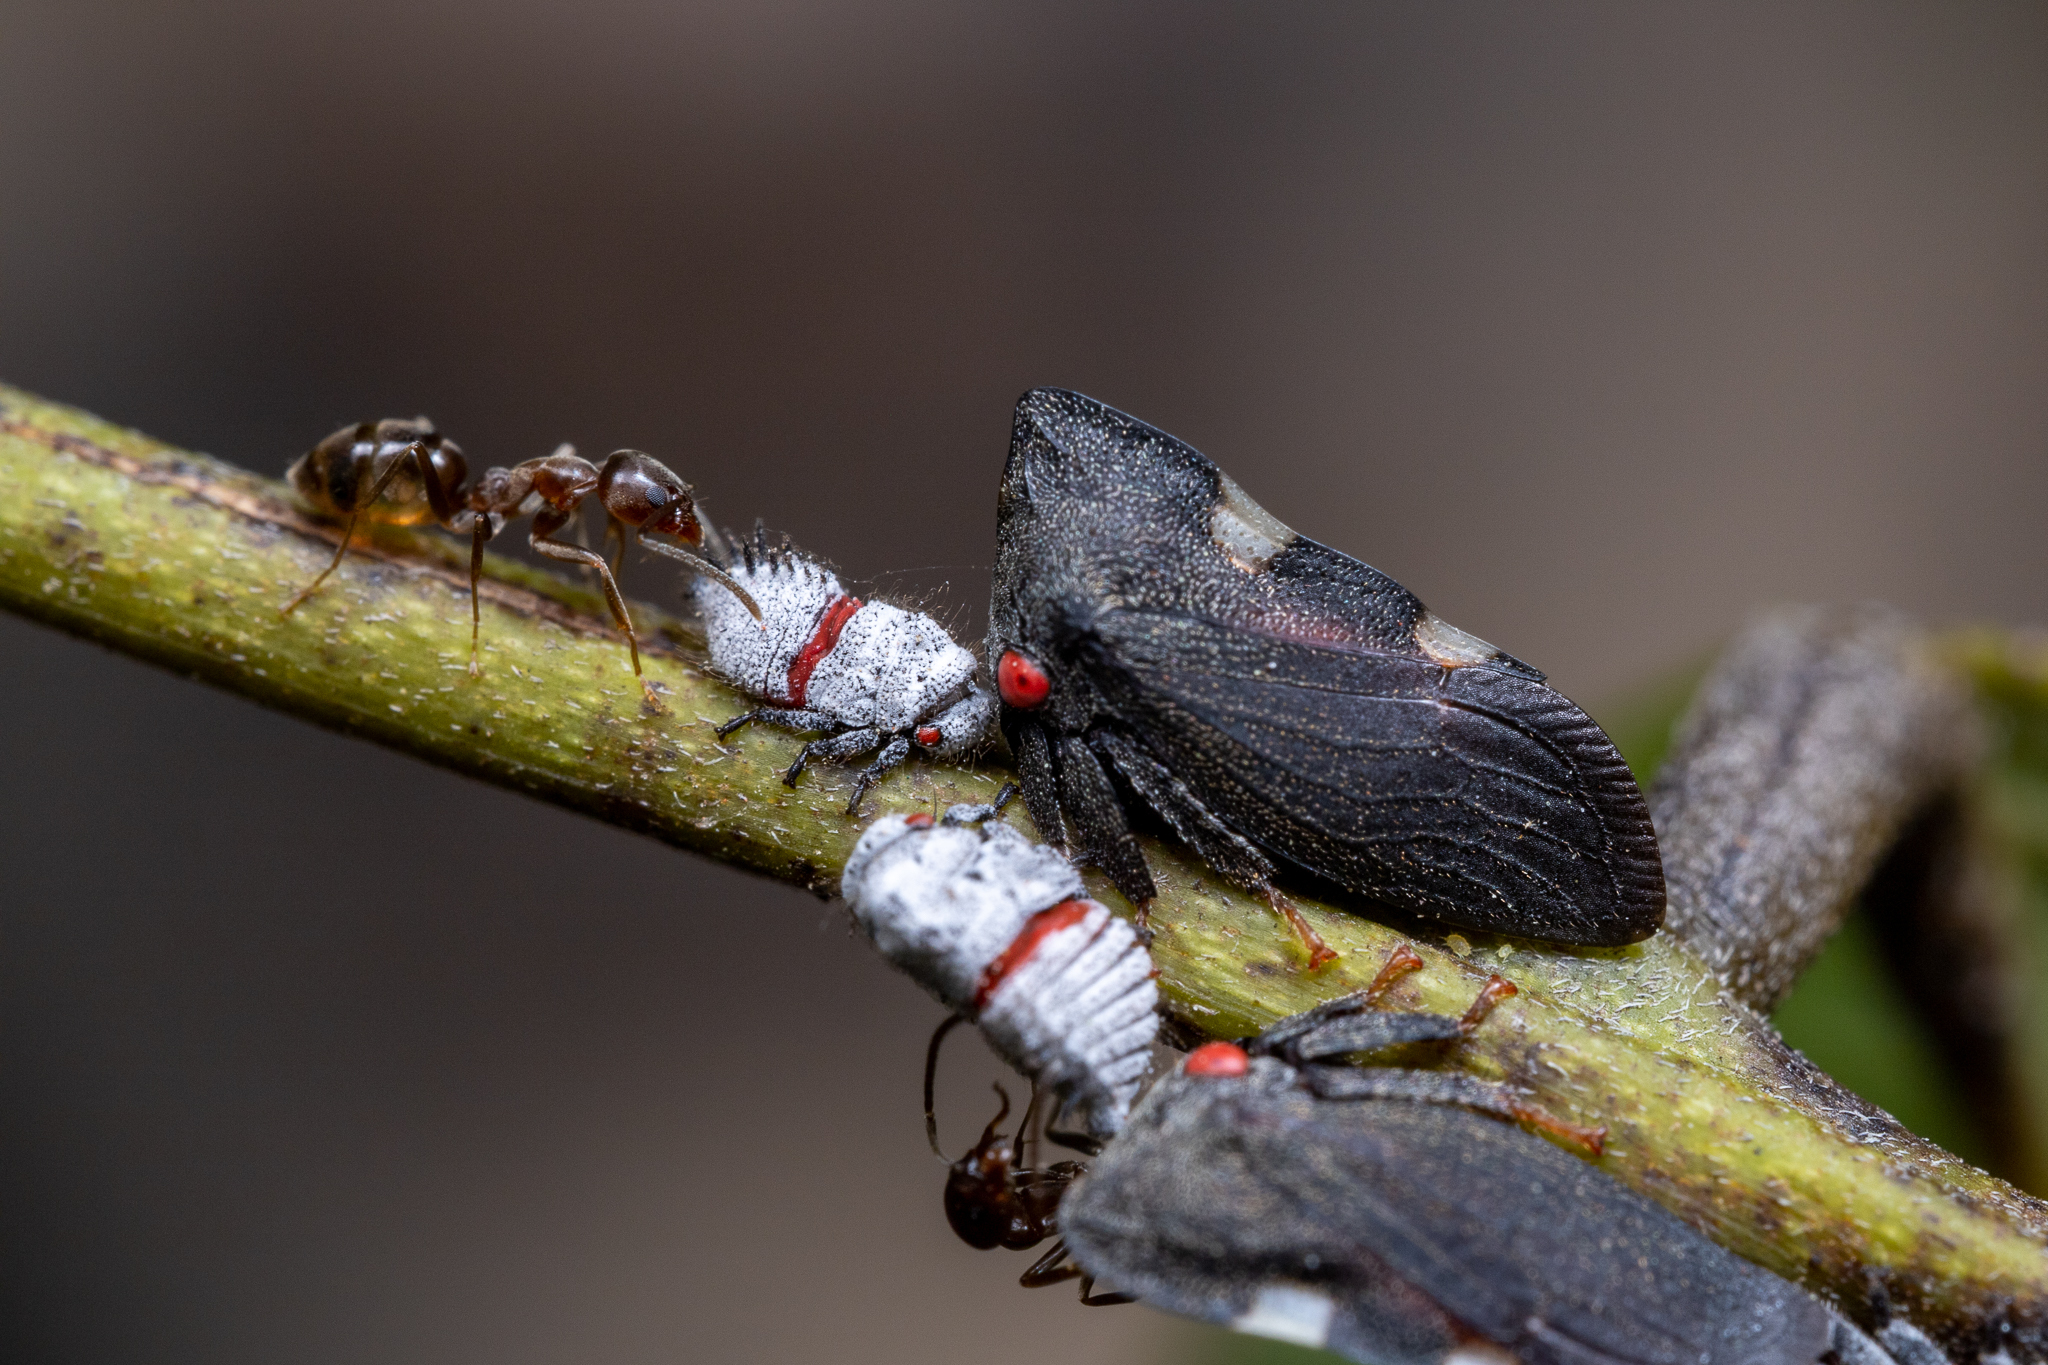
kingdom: Animalia
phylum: Arthropoda
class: Insecta
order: Hemiptera
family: Membracidae
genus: Enchenopa
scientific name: Enchenopa quadricolor
